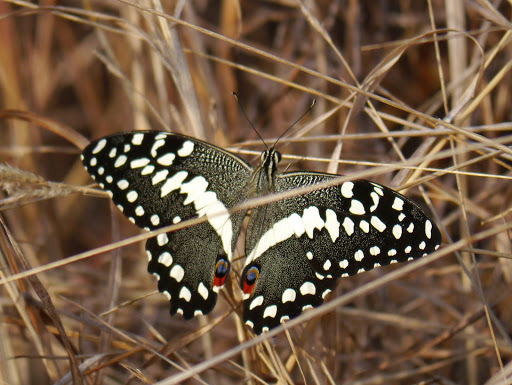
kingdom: Animalia
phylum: Arthropoda
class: Insecta
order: Lepidoptera
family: Papilionidae
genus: Papilio
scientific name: Papilio demodocus
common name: Christmas butterfly
